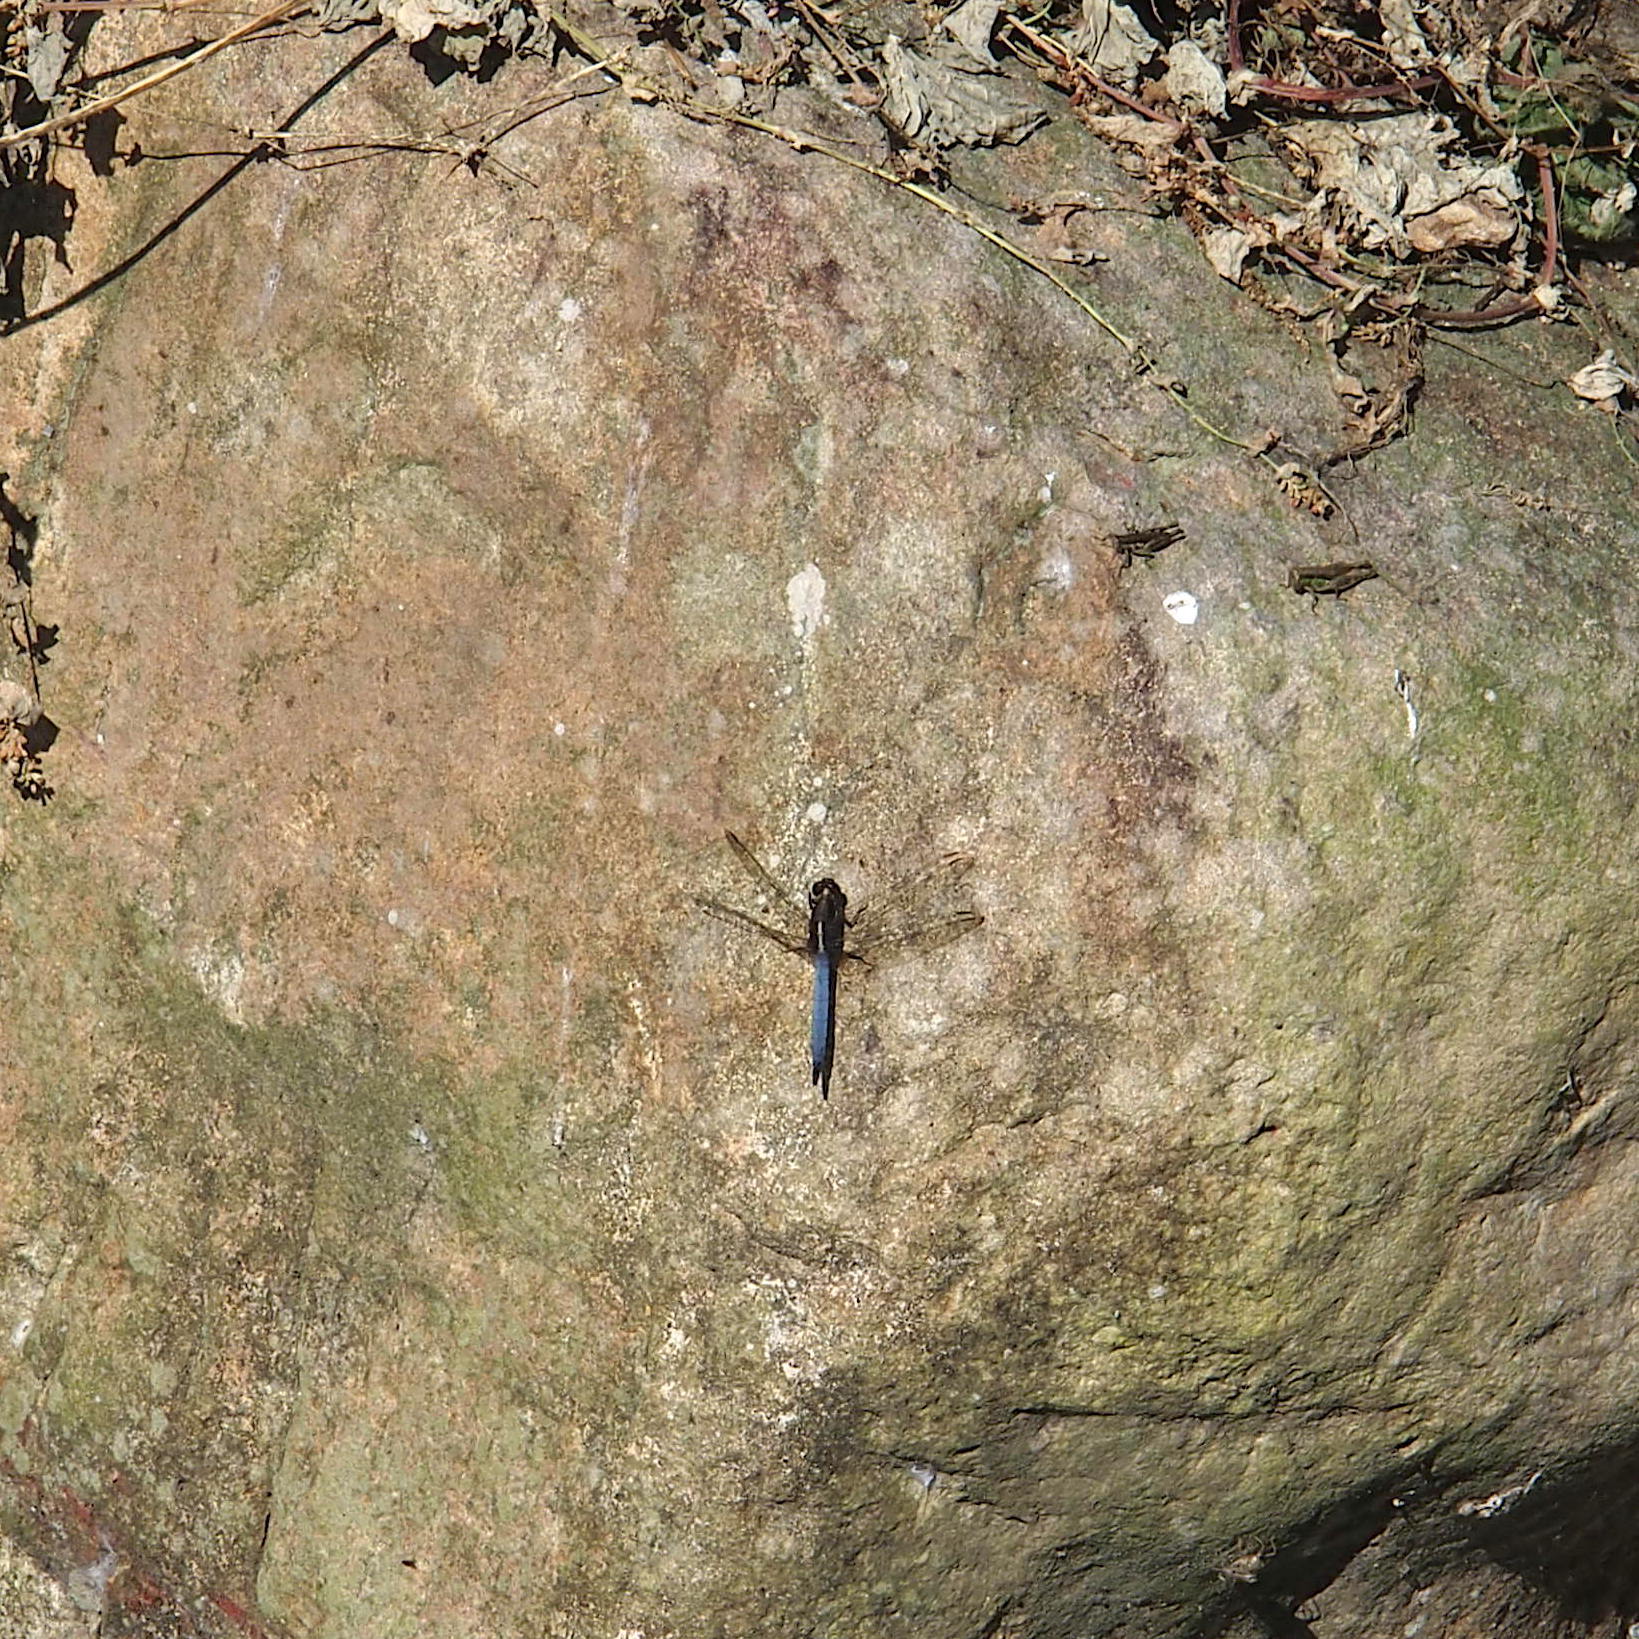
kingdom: Animalia
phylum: Arthropoda
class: Insecta
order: Odonata
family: Libellulidae
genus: Orthetrum
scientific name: Orthetrum glaucum
